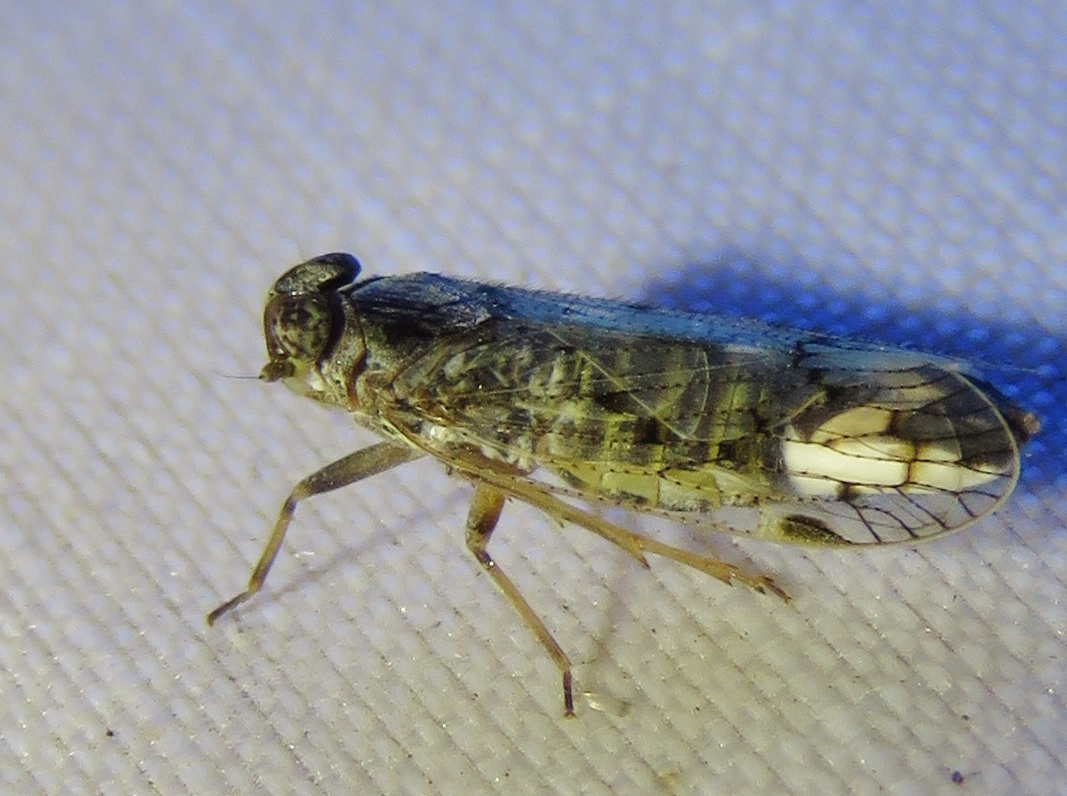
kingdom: Animalia
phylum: Arthropoda
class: Insecta
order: Hemiptera
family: Cixiidae
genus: Melanoliarus
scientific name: Melanoliarus aridus
